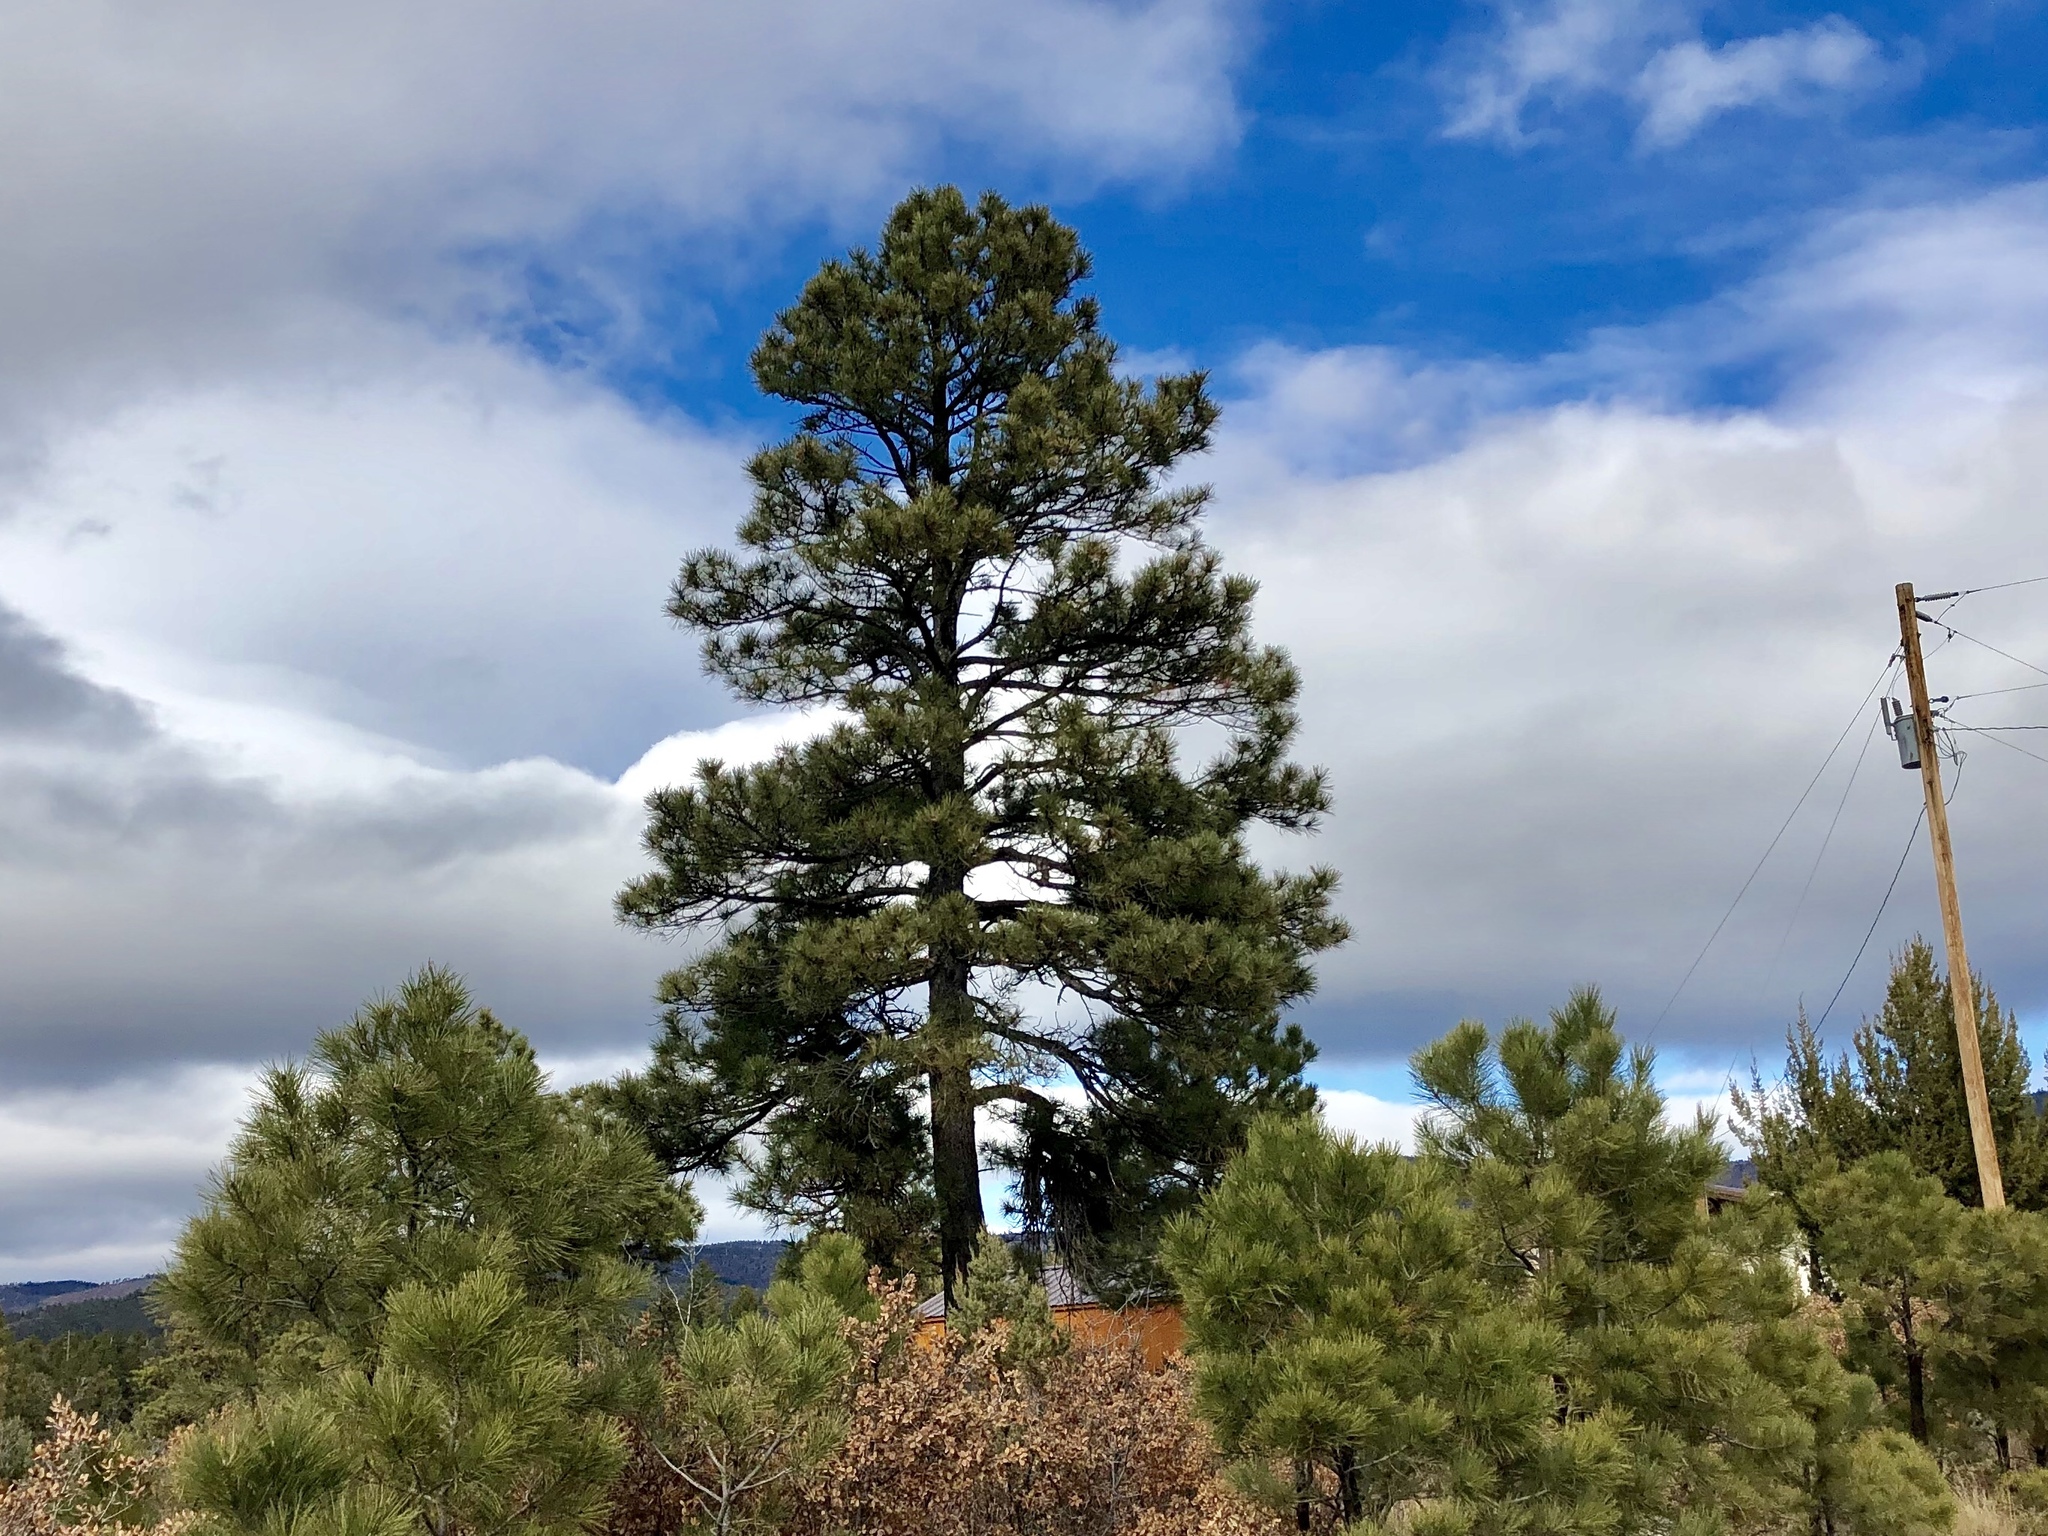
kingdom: Plantae
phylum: Tracheophyta
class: Pinopsida
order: Pinales
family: Pinaceae
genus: Pinus
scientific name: Pinus ponderosa
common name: Western yellow-pine
